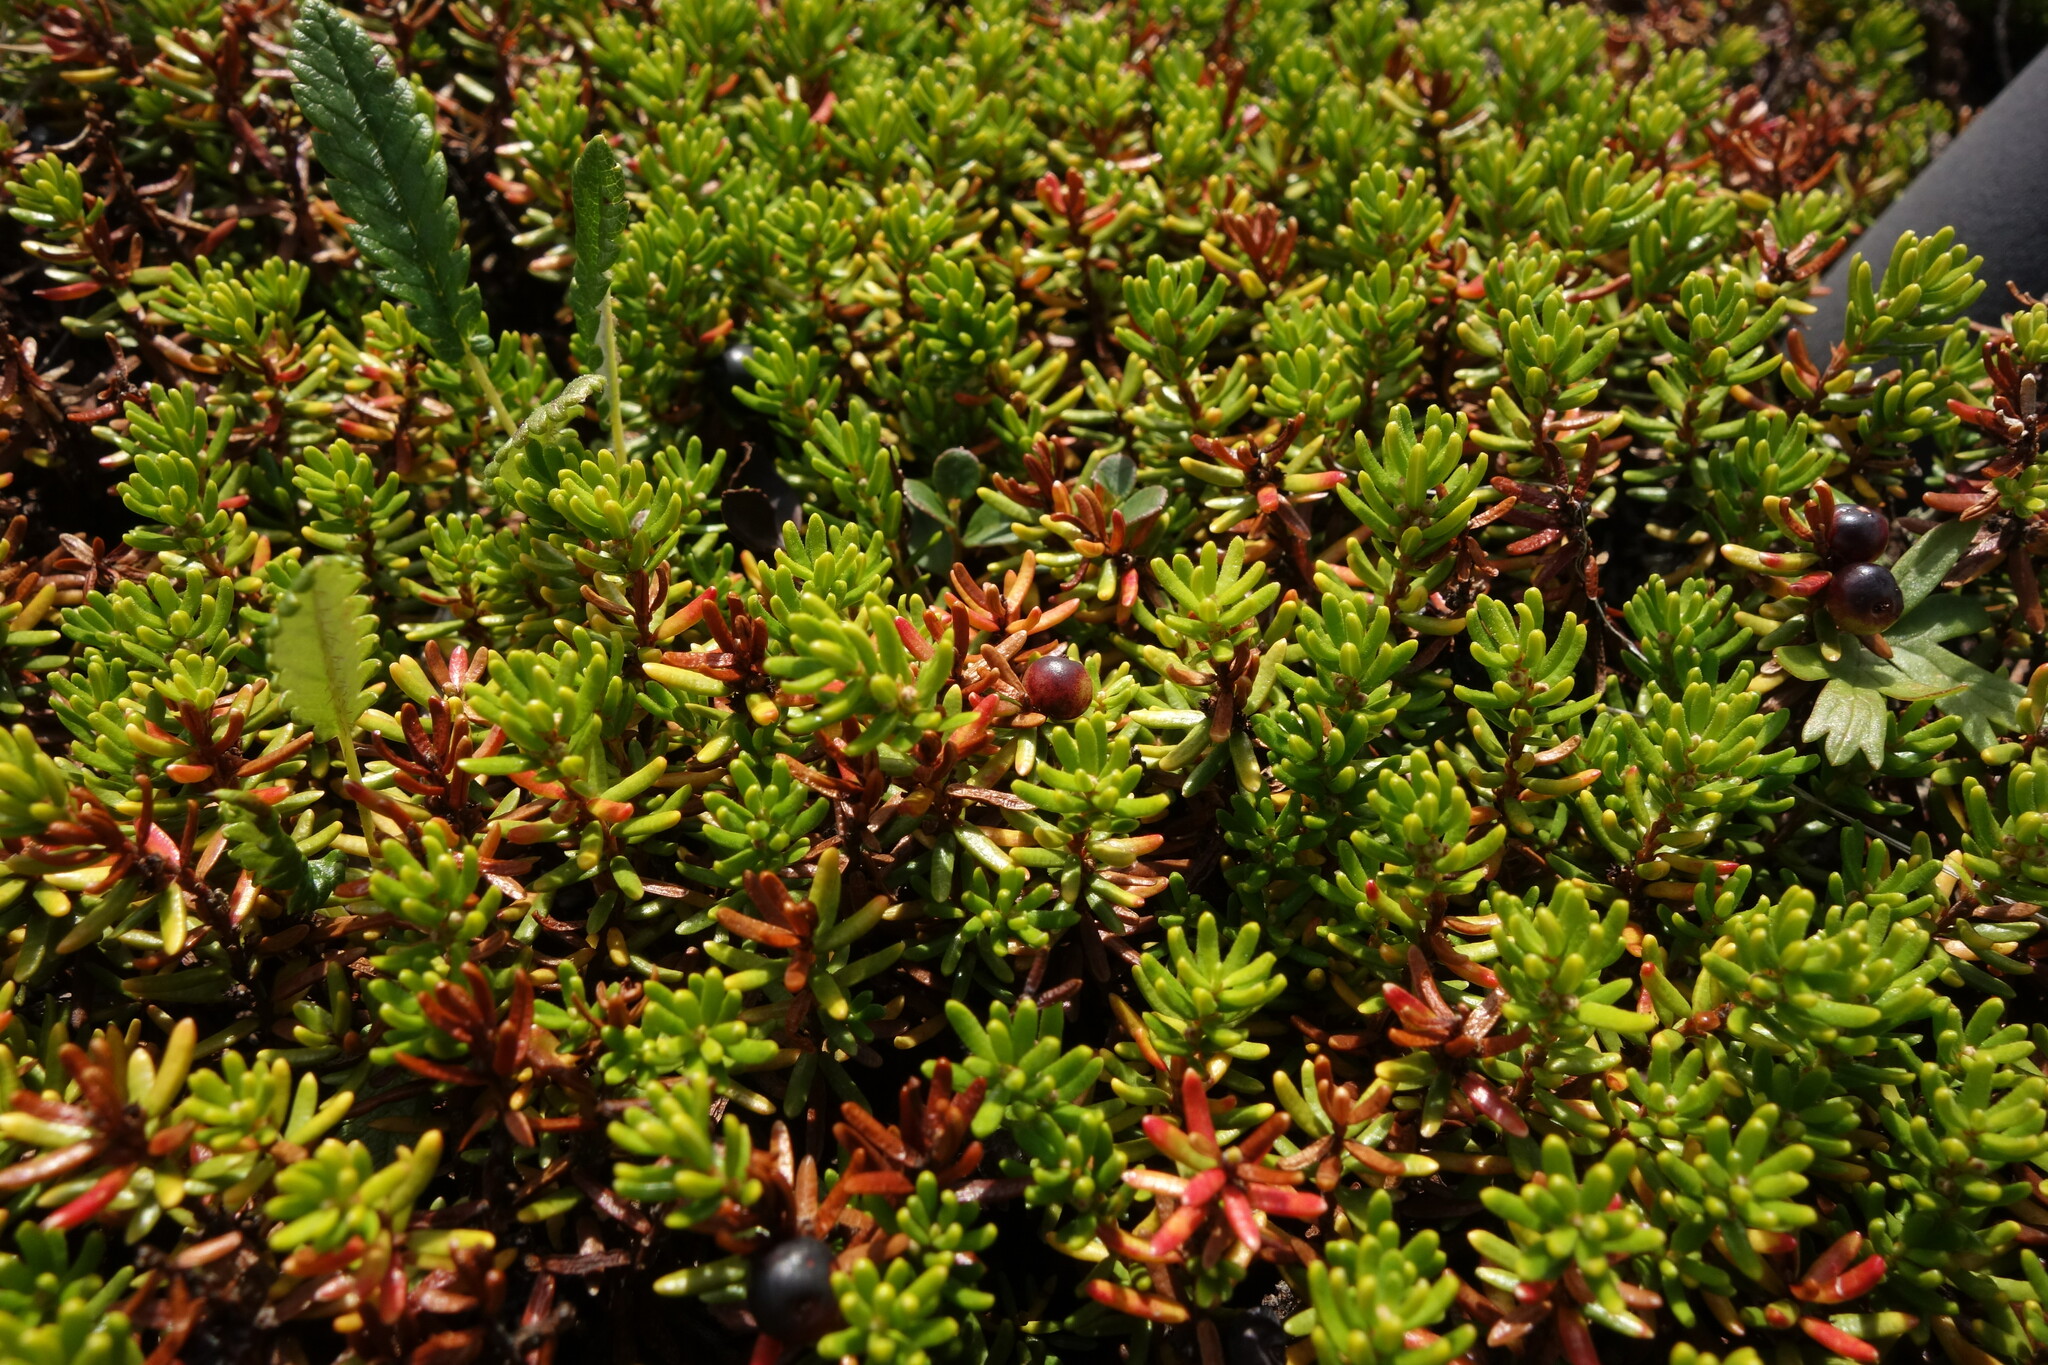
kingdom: Plantae
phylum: Tracheophyta
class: Magnoliopsida
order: Ericales
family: Ericaceae
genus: Empetrum
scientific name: Empetrum nigrum
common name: Black crowberry
